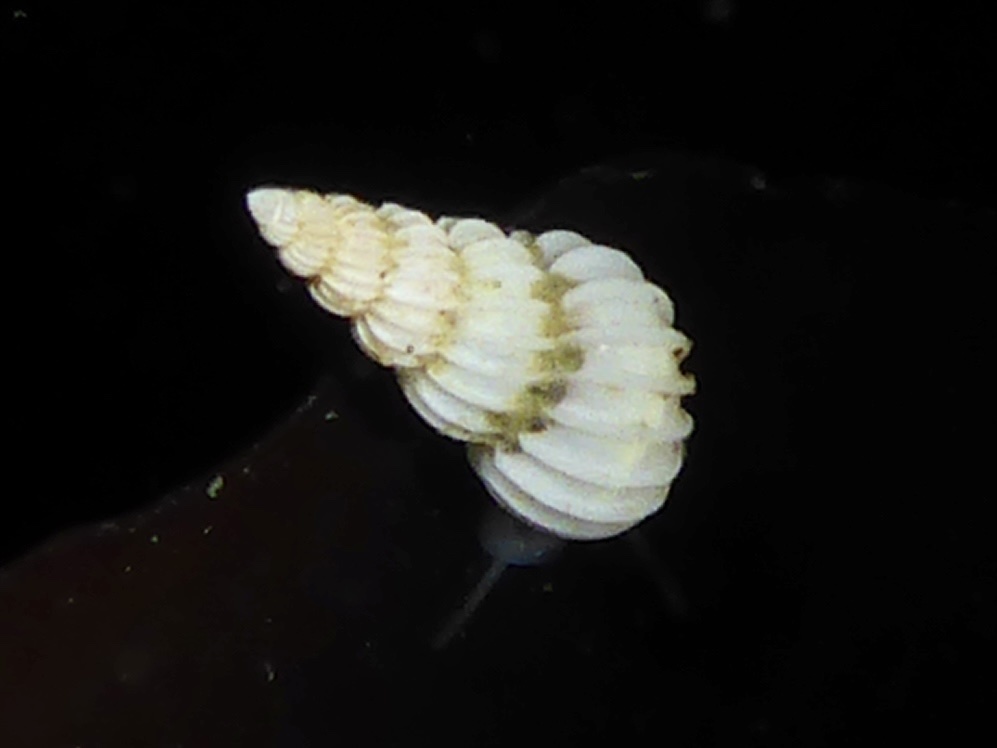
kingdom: Animalia
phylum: Mollusca
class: Gastropoda
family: Epitoniidae
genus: Epitonium
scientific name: Epitonium sawinae
